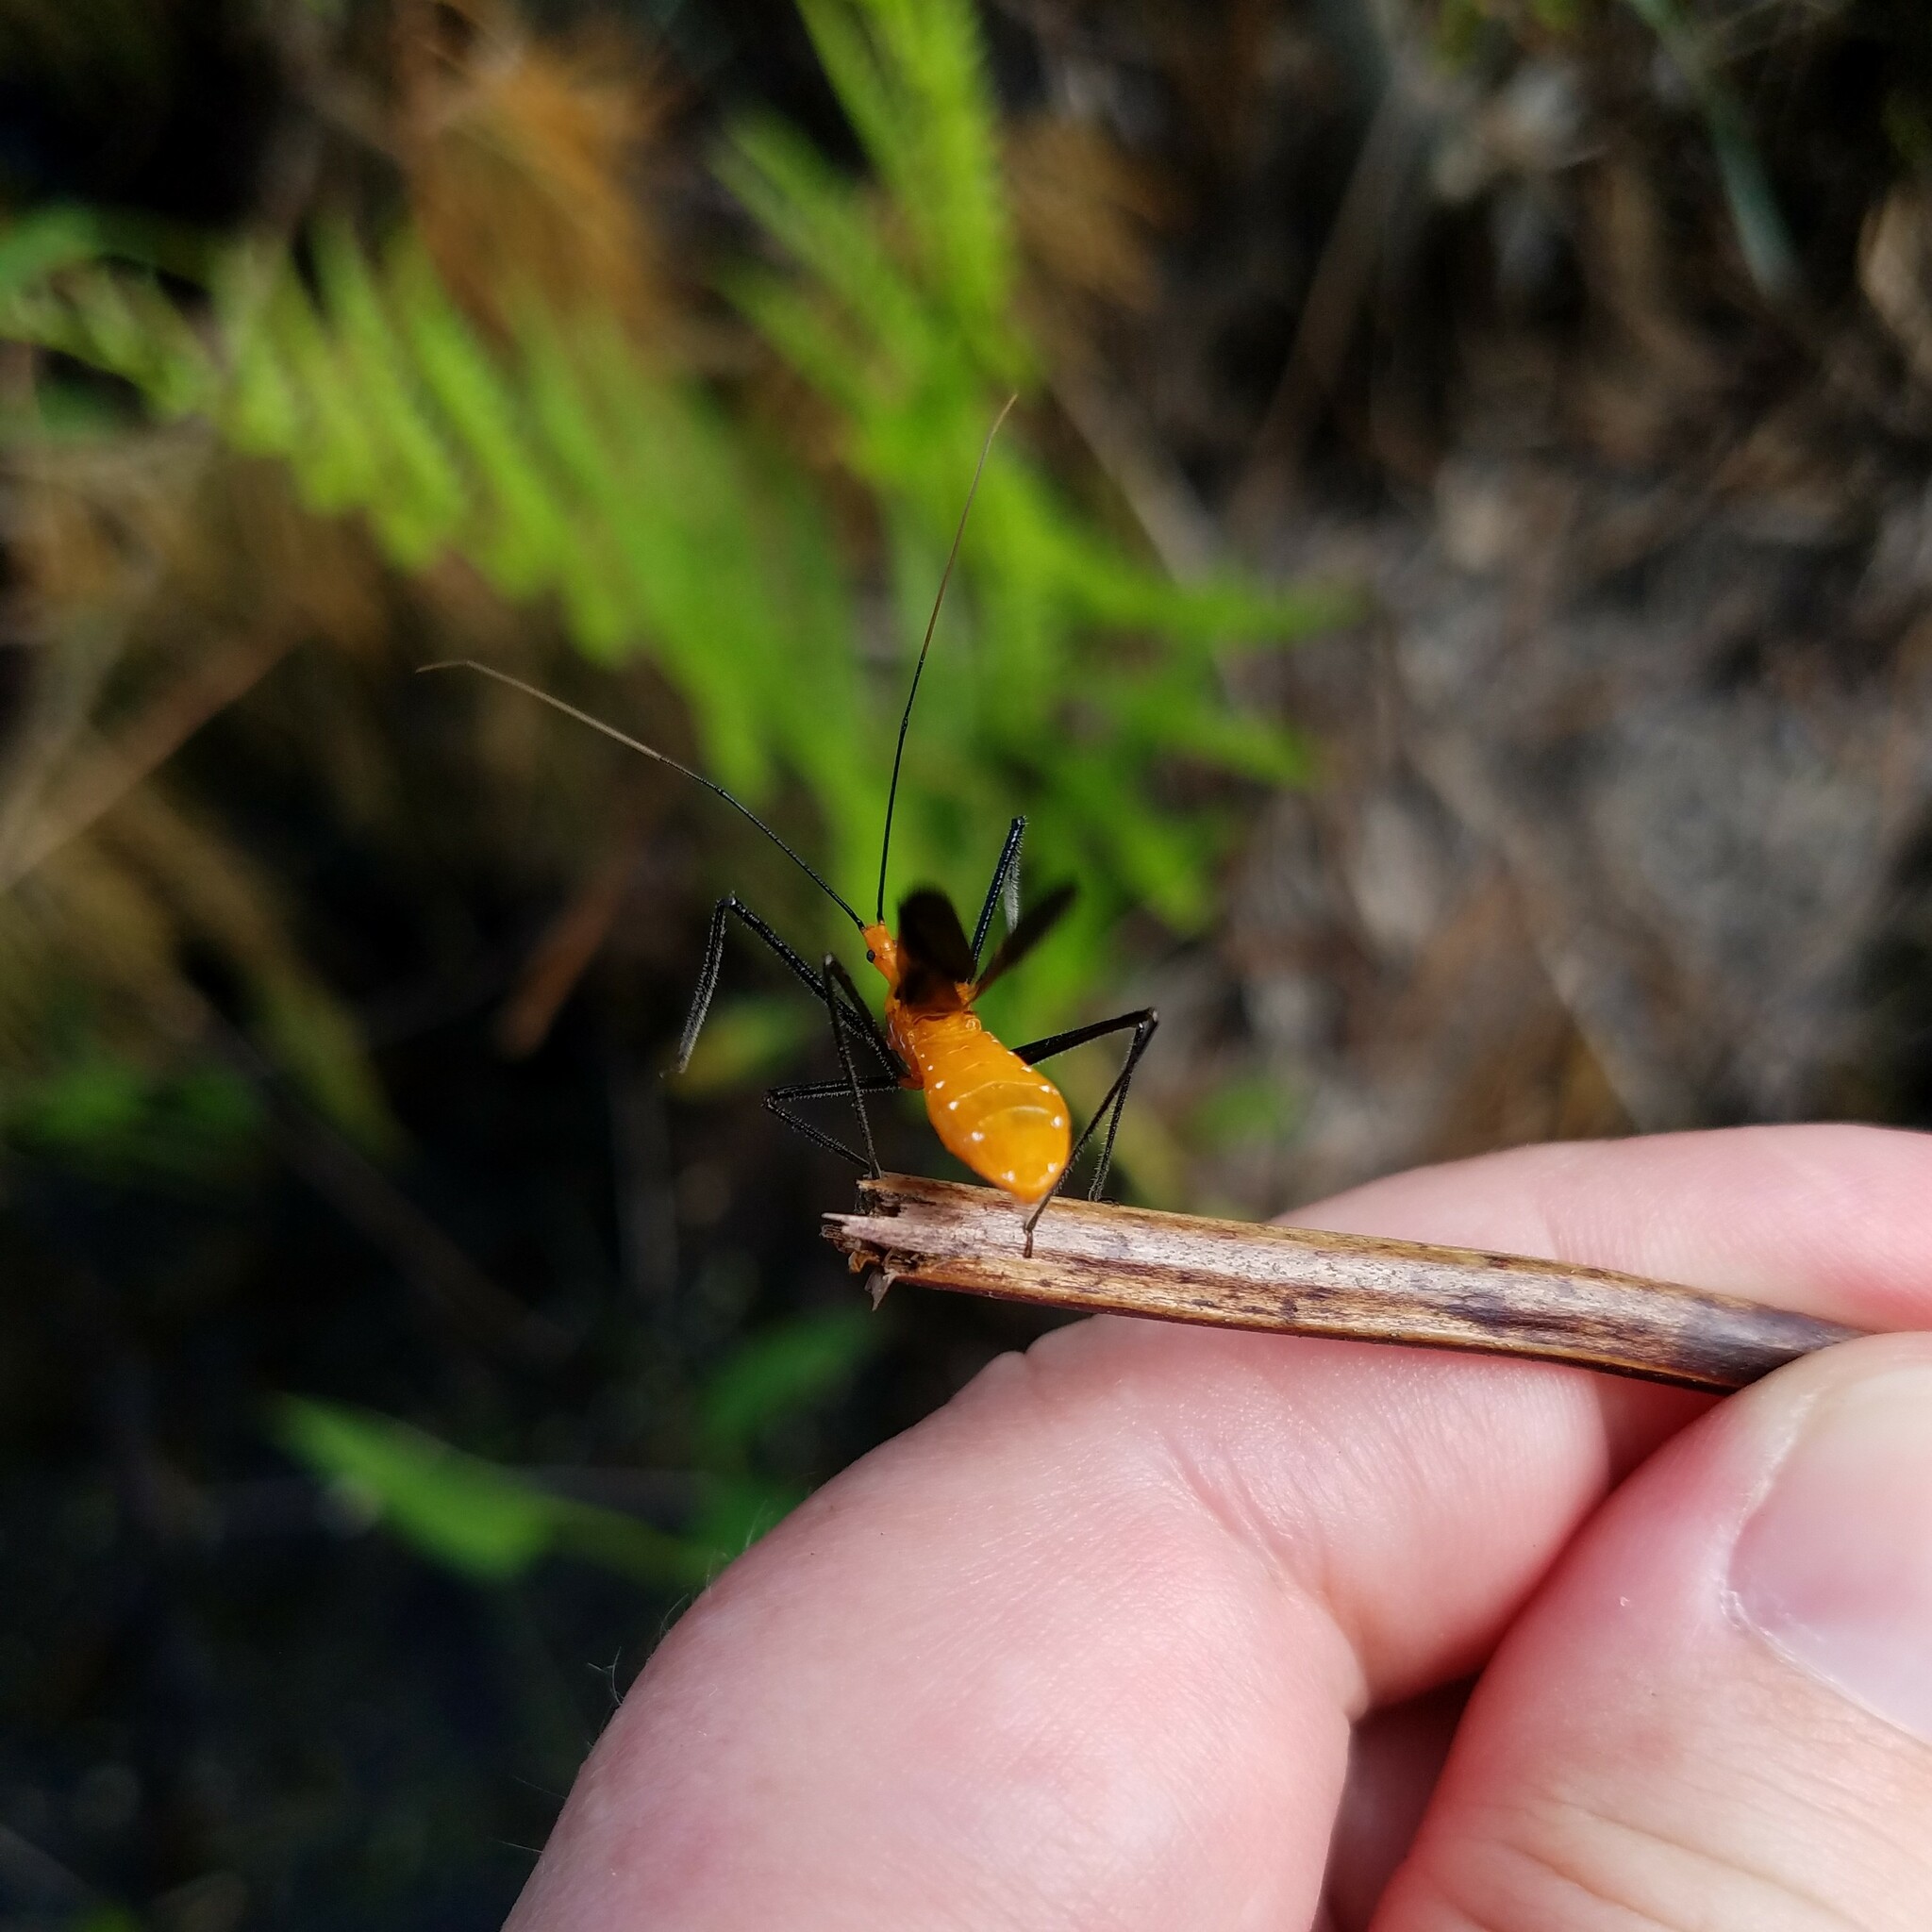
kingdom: Animalia
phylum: Arthropoda
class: Insecta
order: Hemiptera
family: Reduviidae
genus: Zelus
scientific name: Zelus longipes
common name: Milkweed assassin bug
